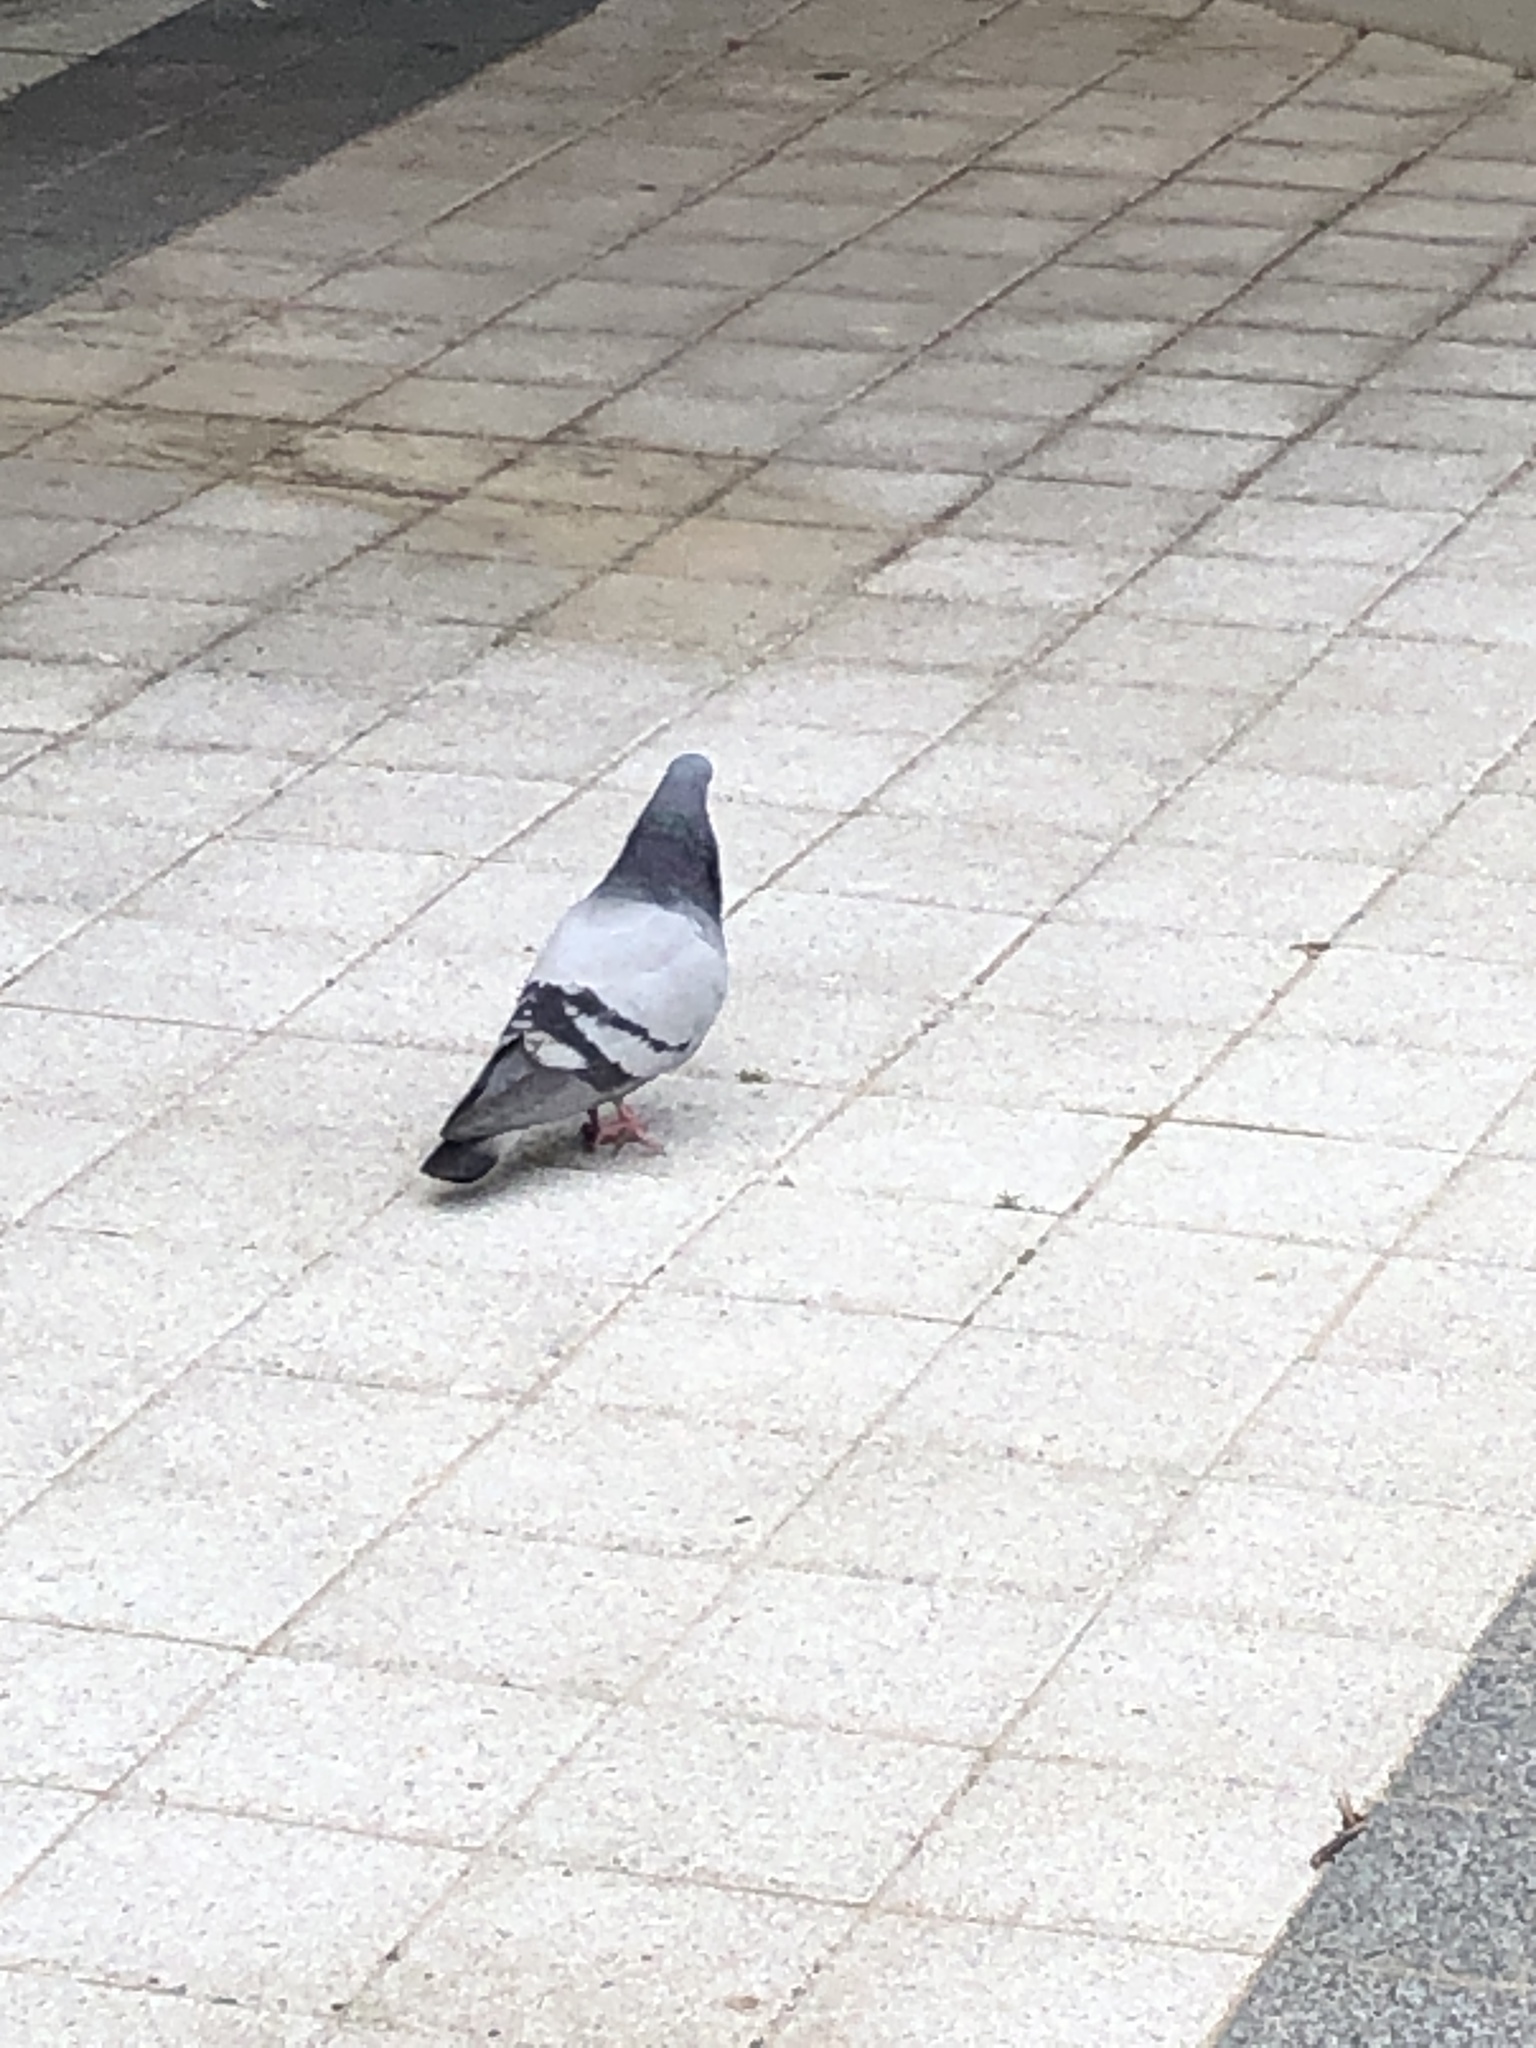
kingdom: Animalia
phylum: Chordata
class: Aves
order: Columbiformes
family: Columbidae
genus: Columba
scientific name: Columba livia
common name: Rock pigeon
